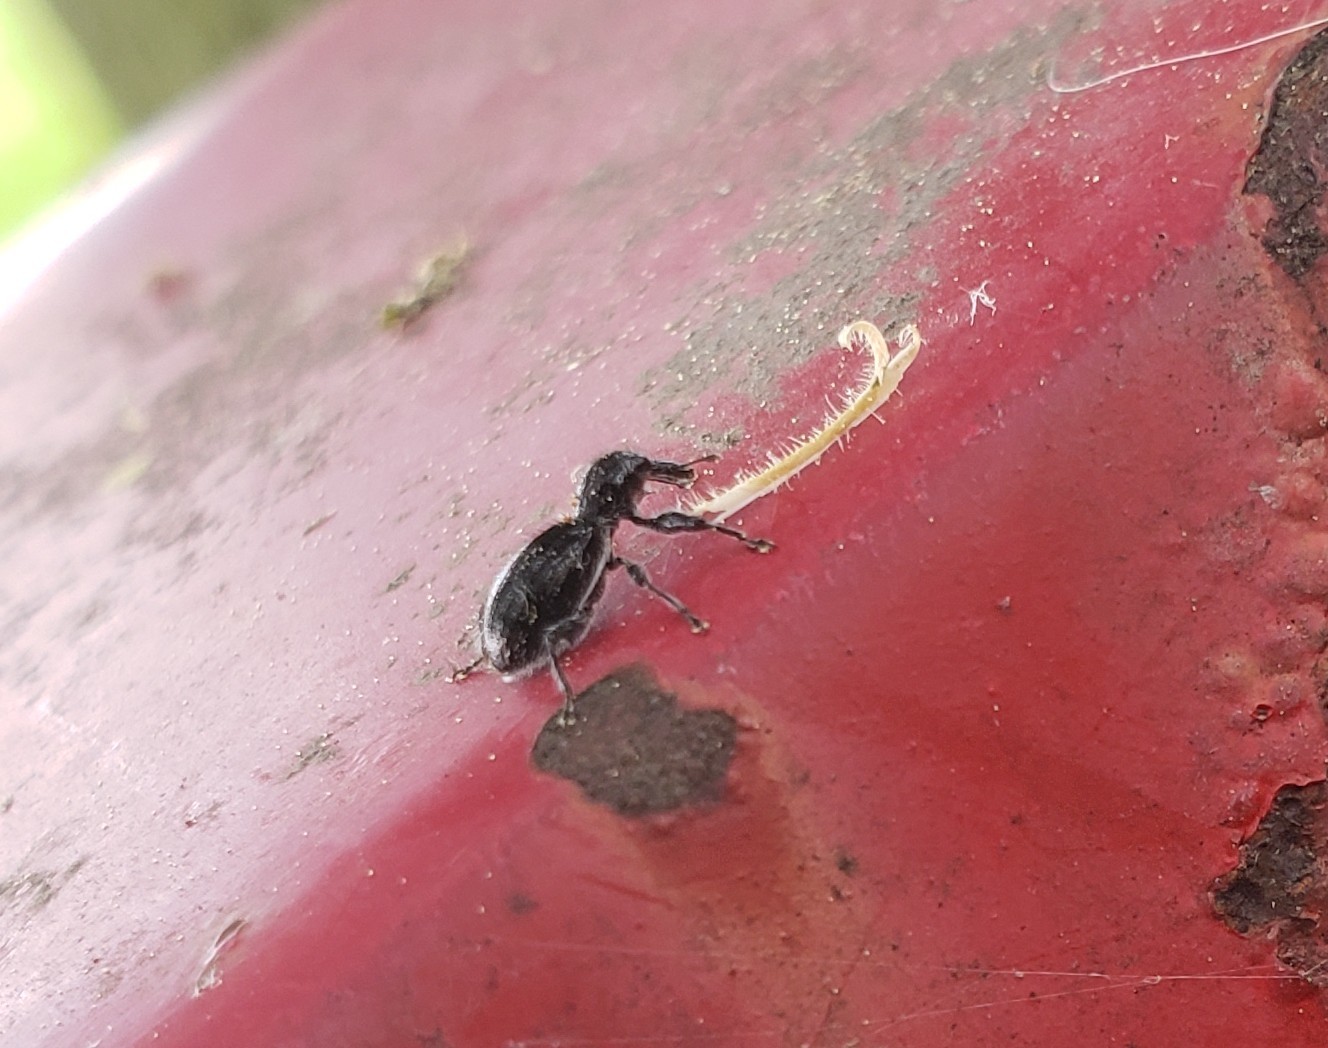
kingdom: Animalia
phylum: Arthropoda
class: Insecta
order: Coleoptera
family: Curculionidae
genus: Myrmex
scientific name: Myrmex myrmex
